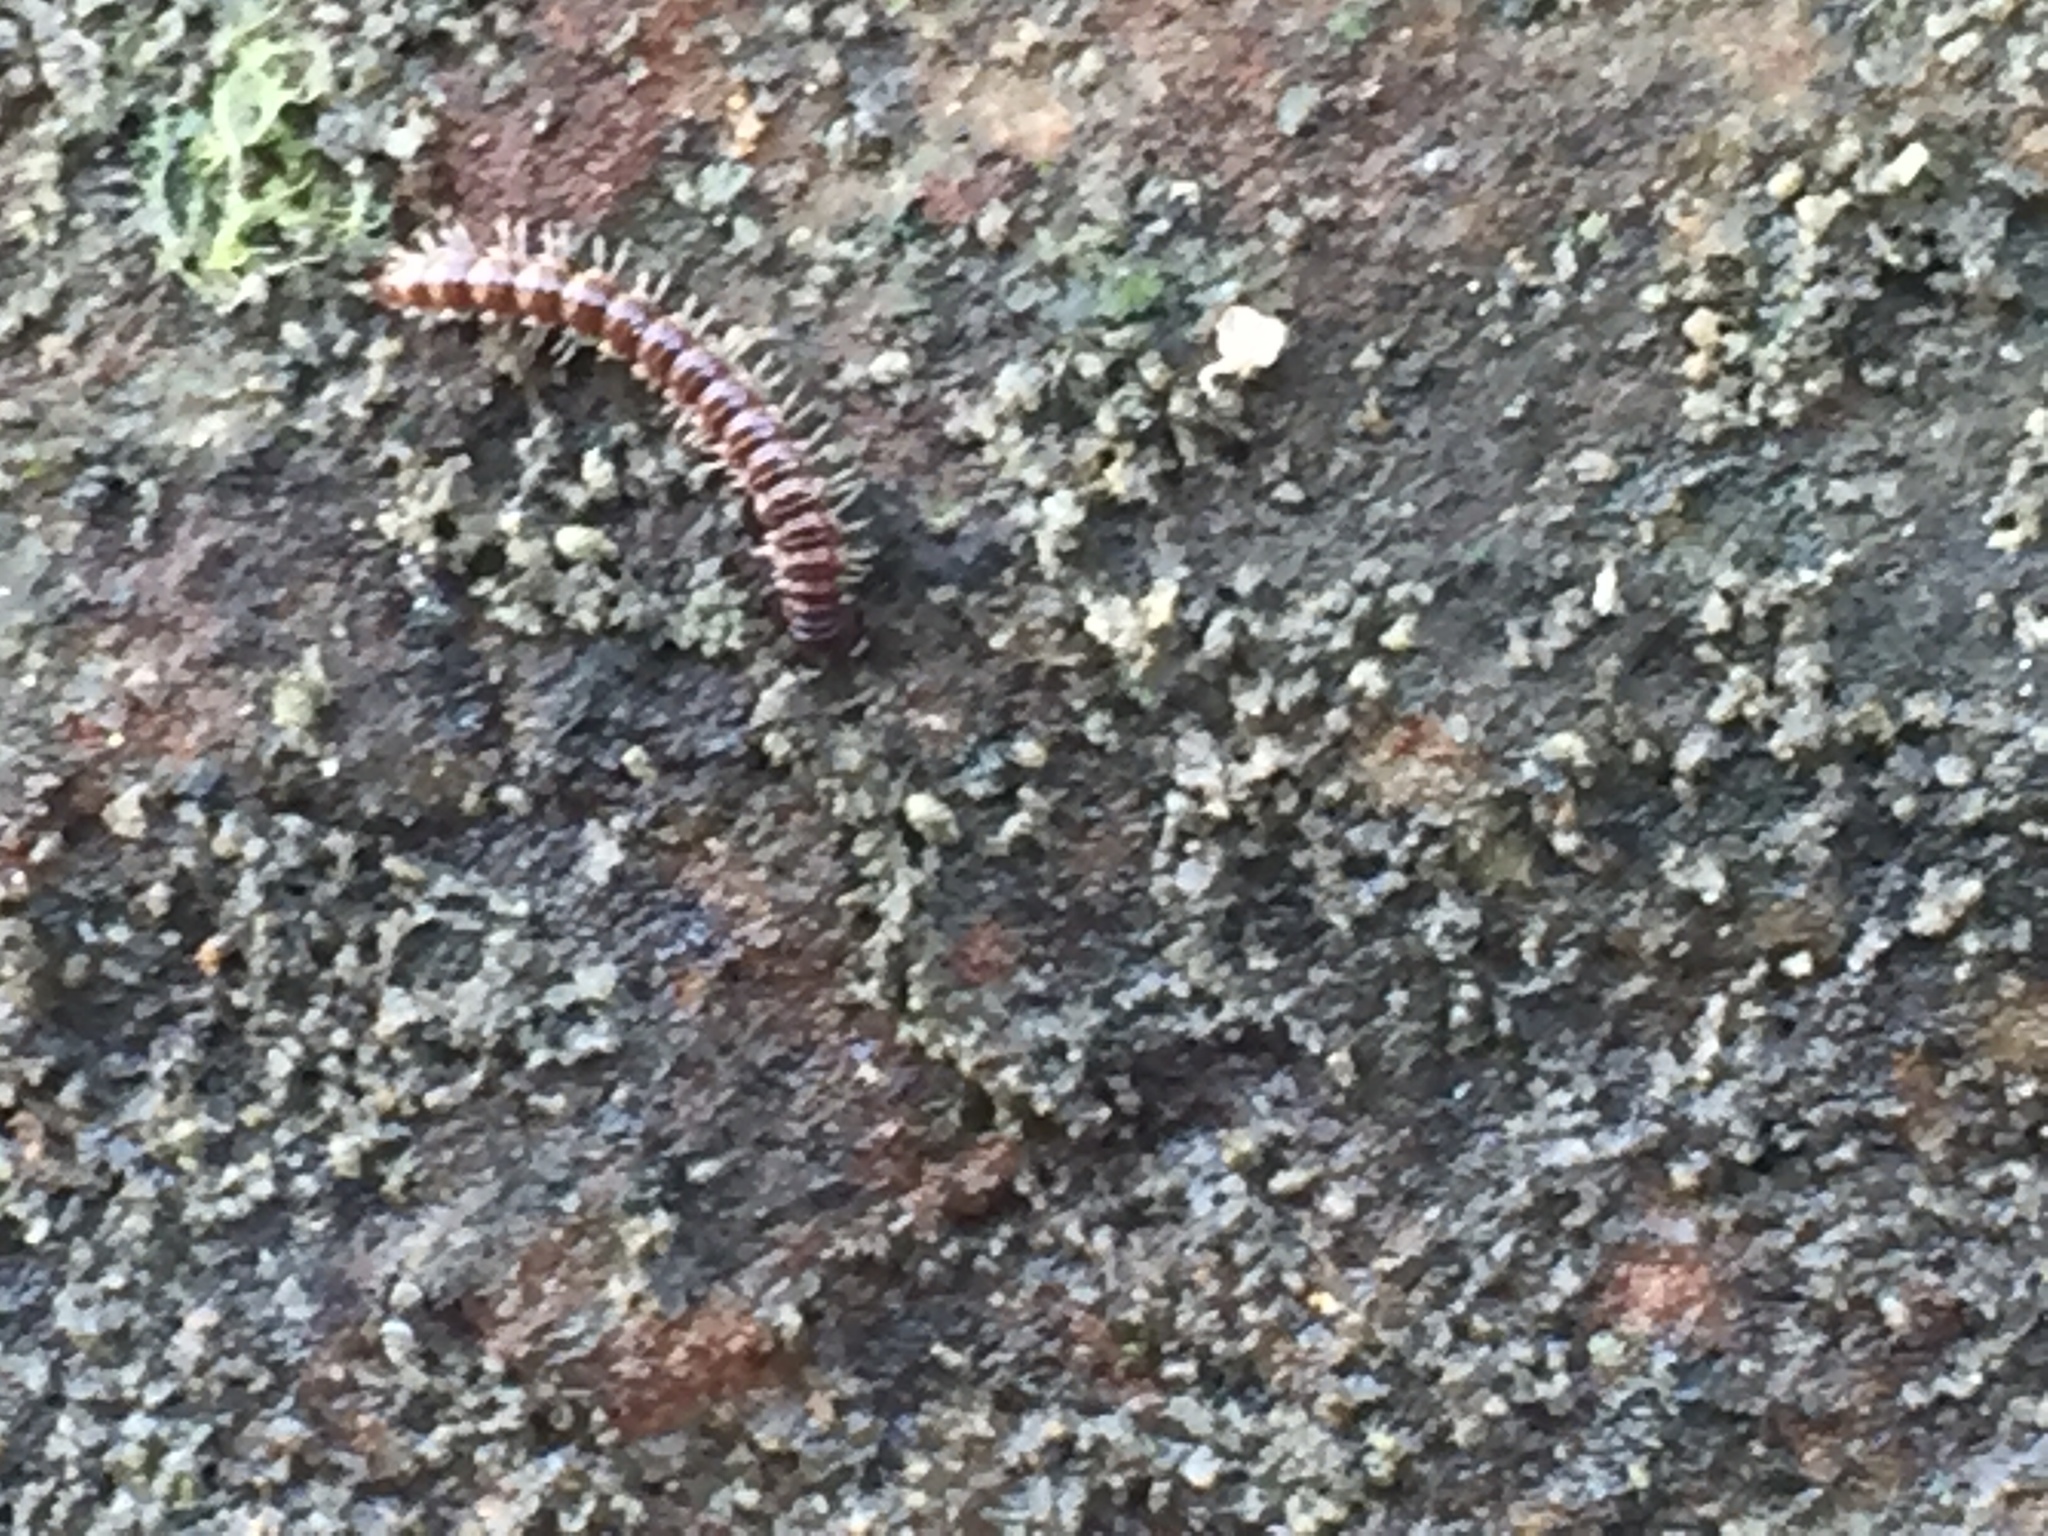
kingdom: Animalia
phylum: Arthropoda
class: Diplopoda
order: Polydesmida
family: Paradoxosomatidae
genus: Oxidus
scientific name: Oxidus gracilis
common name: Greenhouse millipede
